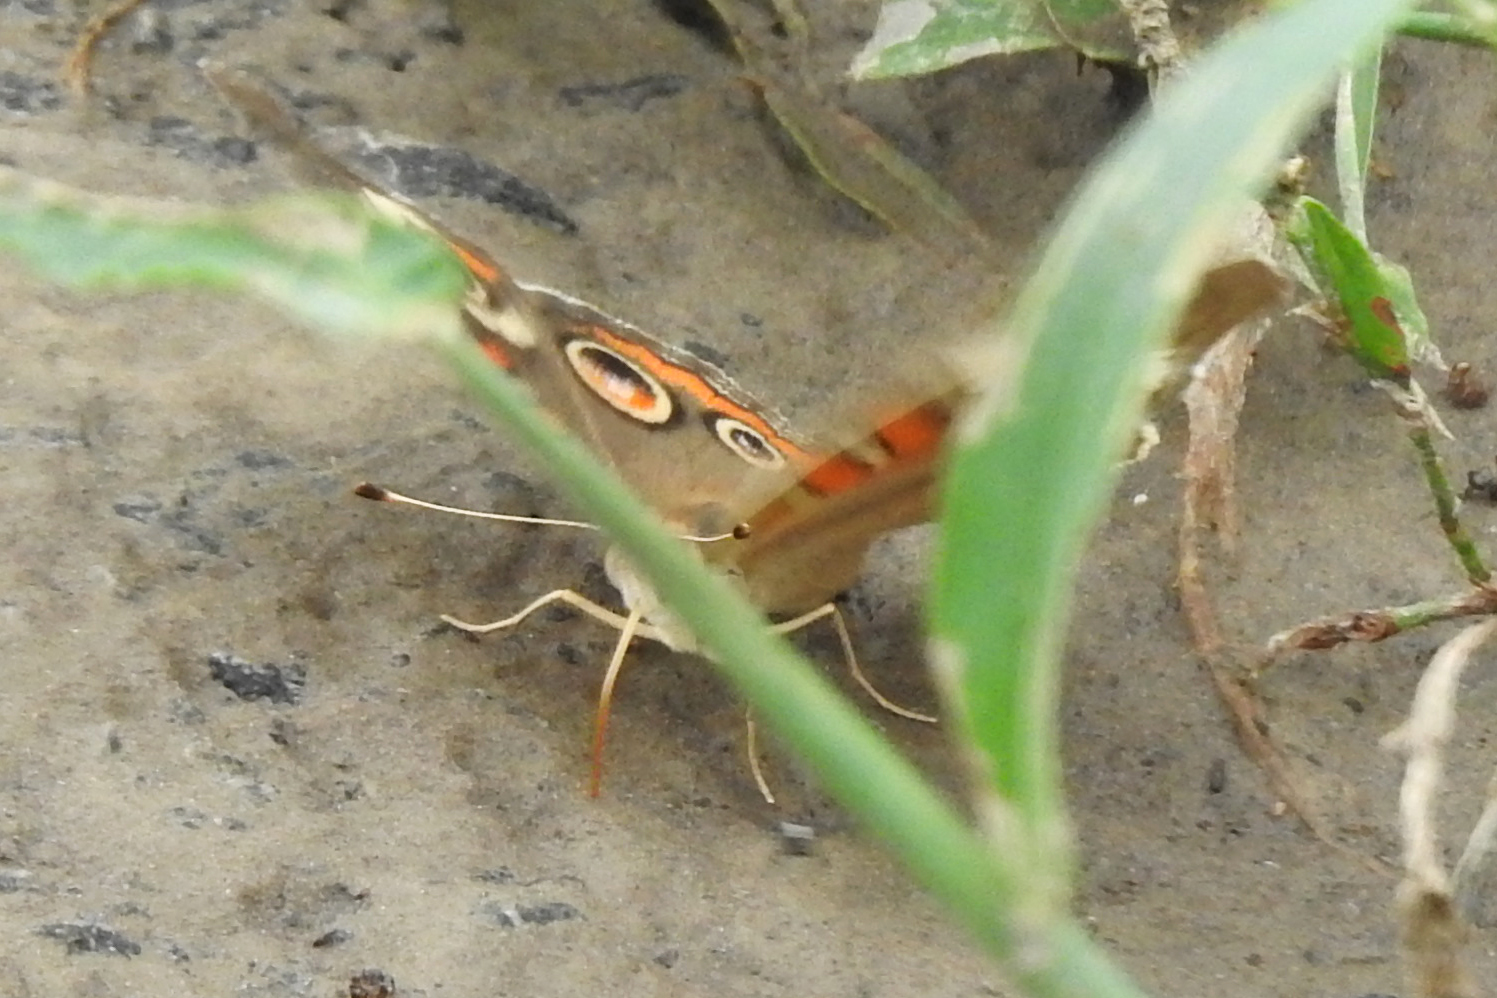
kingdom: Animalia
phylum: Arthropoda
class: Insecta
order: Lepidoptera
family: Nymphalidae
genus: Junonia
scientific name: Junonia coenia
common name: Common buckeye
